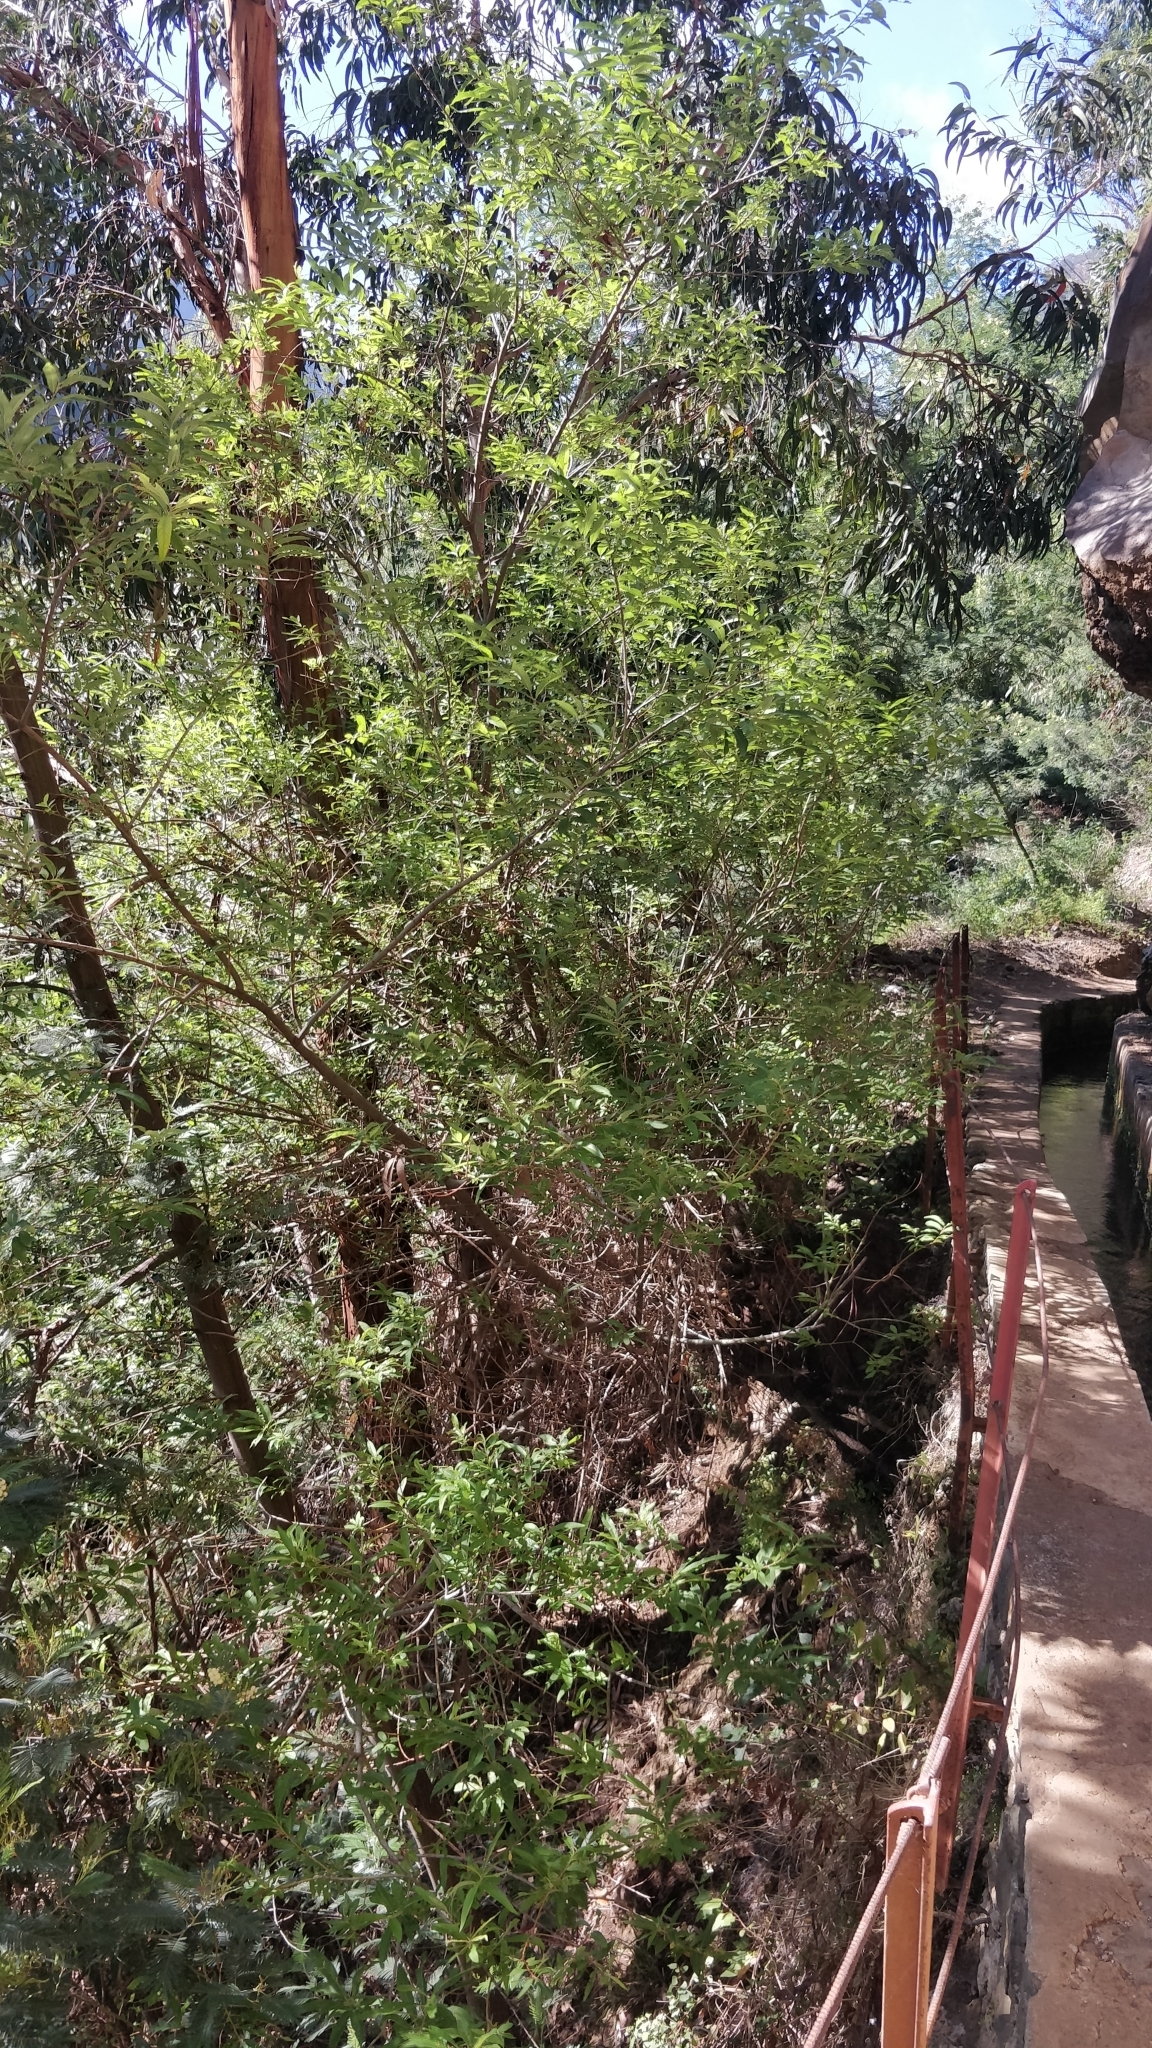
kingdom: Plantae
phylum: Tracheophyta
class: Magnoliopsida
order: Malpighiales
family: Salicaceae
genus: Salix
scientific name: Salix canariensis
